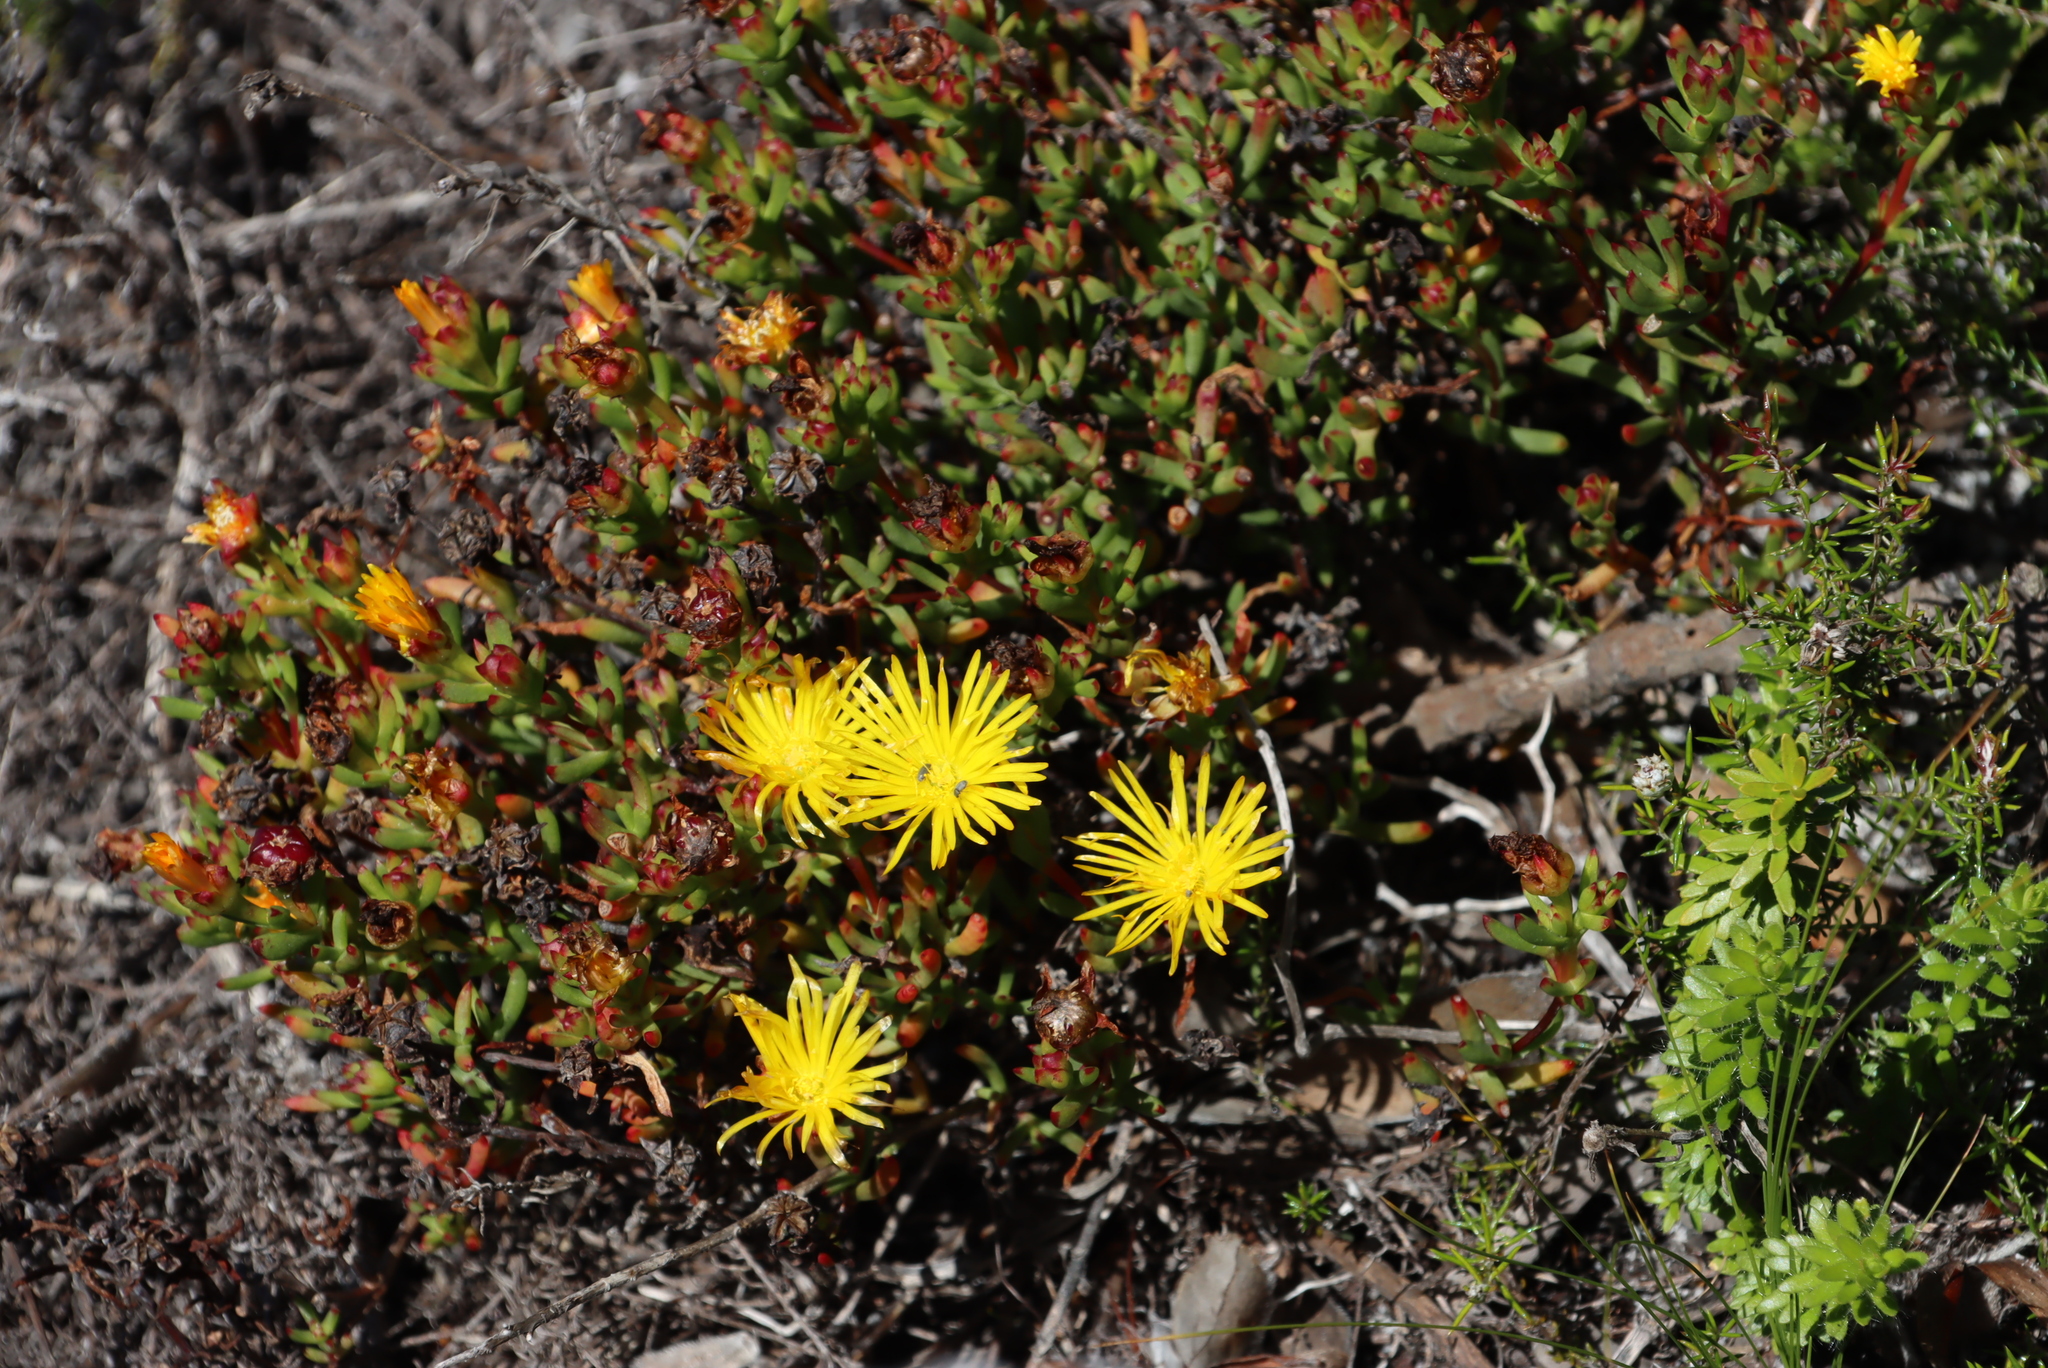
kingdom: Plantae
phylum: Tracheophyta
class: Magnoliopsida
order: Caryophyllales
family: Aizoaceae
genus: Lampranthus
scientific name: Lampranthus promontorii
